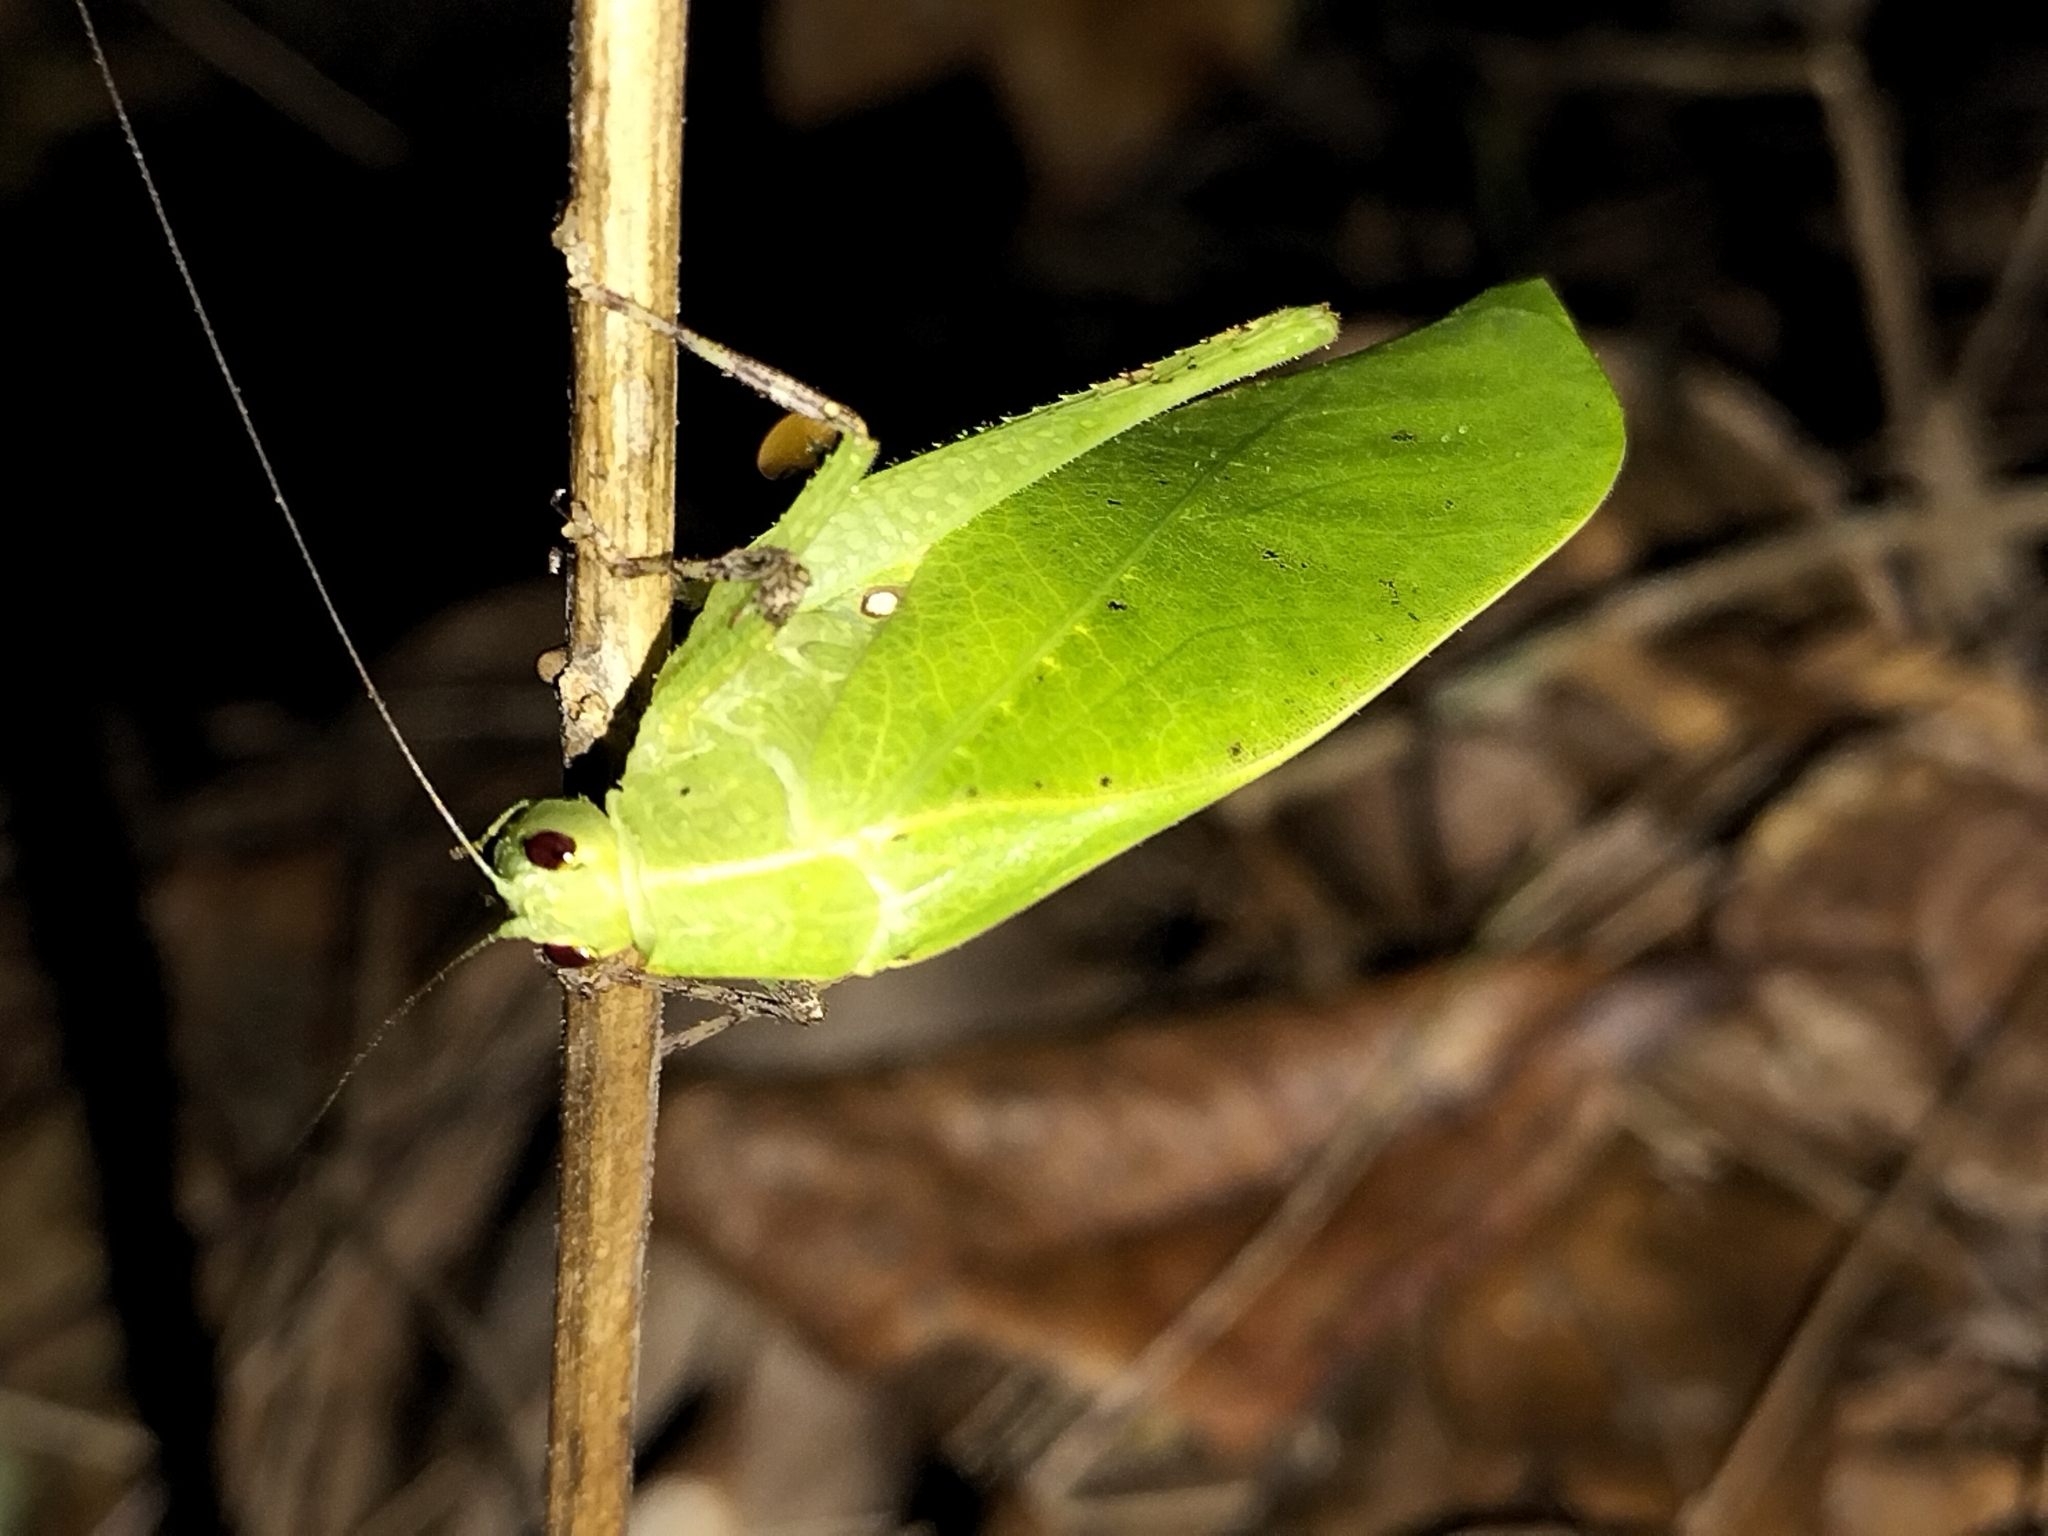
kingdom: Animalia
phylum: Arthropoda
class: Insecta
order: Orthoptera
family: Tettigoniidae
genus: Diastella
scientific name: Diastella kuranda
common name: Kuranda speckled katydid
